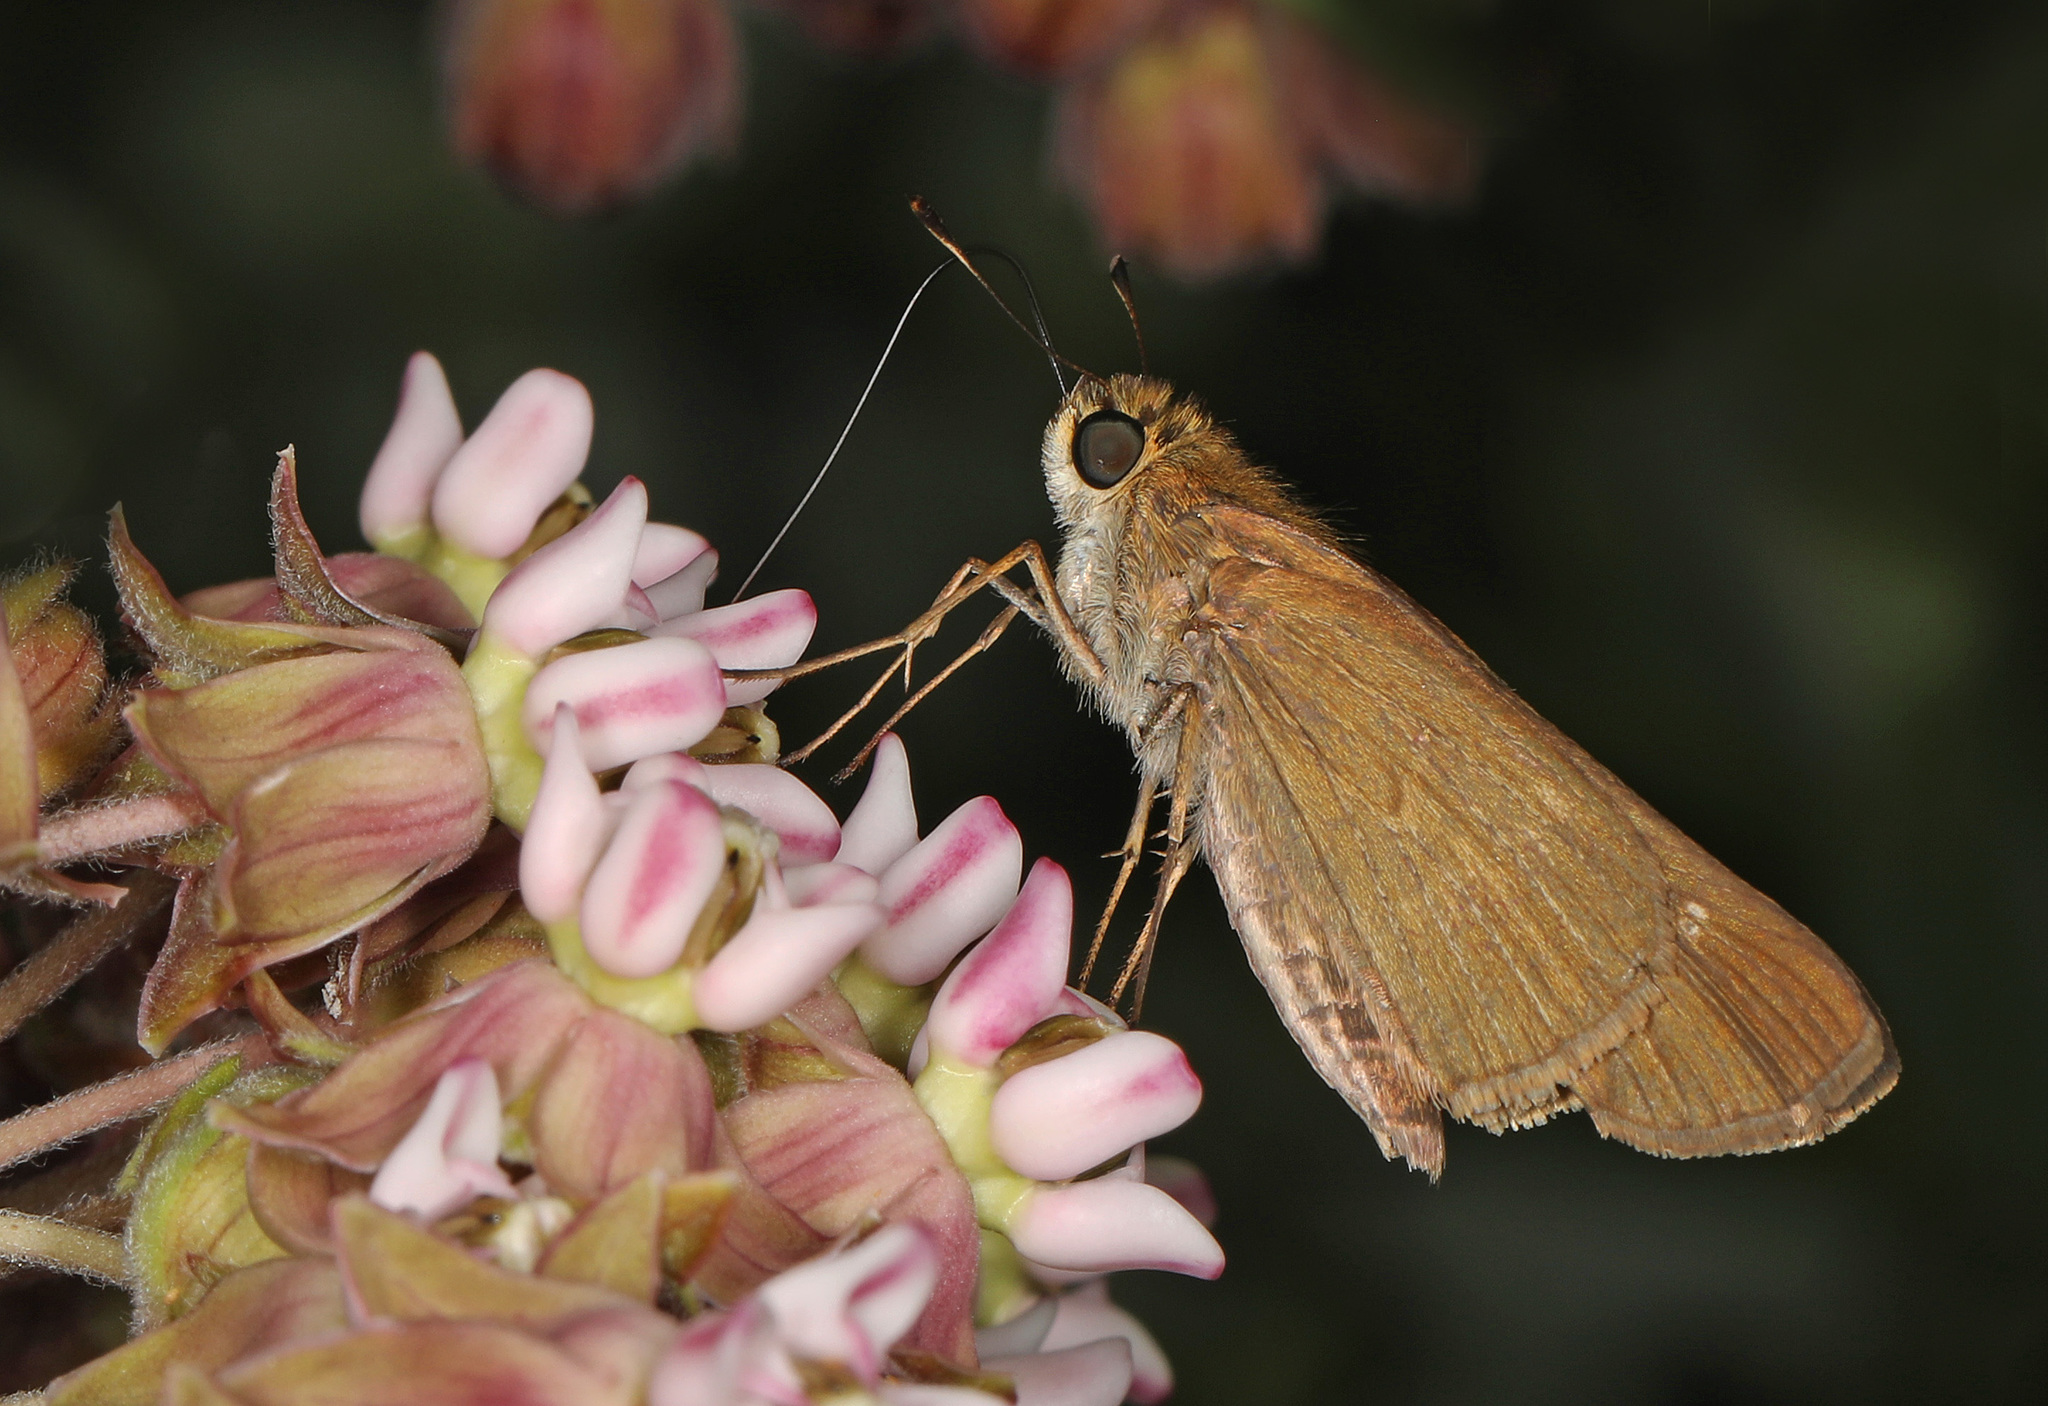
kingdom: Animalia
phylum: Arthropoda
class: Insecta
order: Lepidoptera
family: Hesperiidae
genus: Panoquina
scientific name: Panoquina ocola
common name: Ocola skipper
